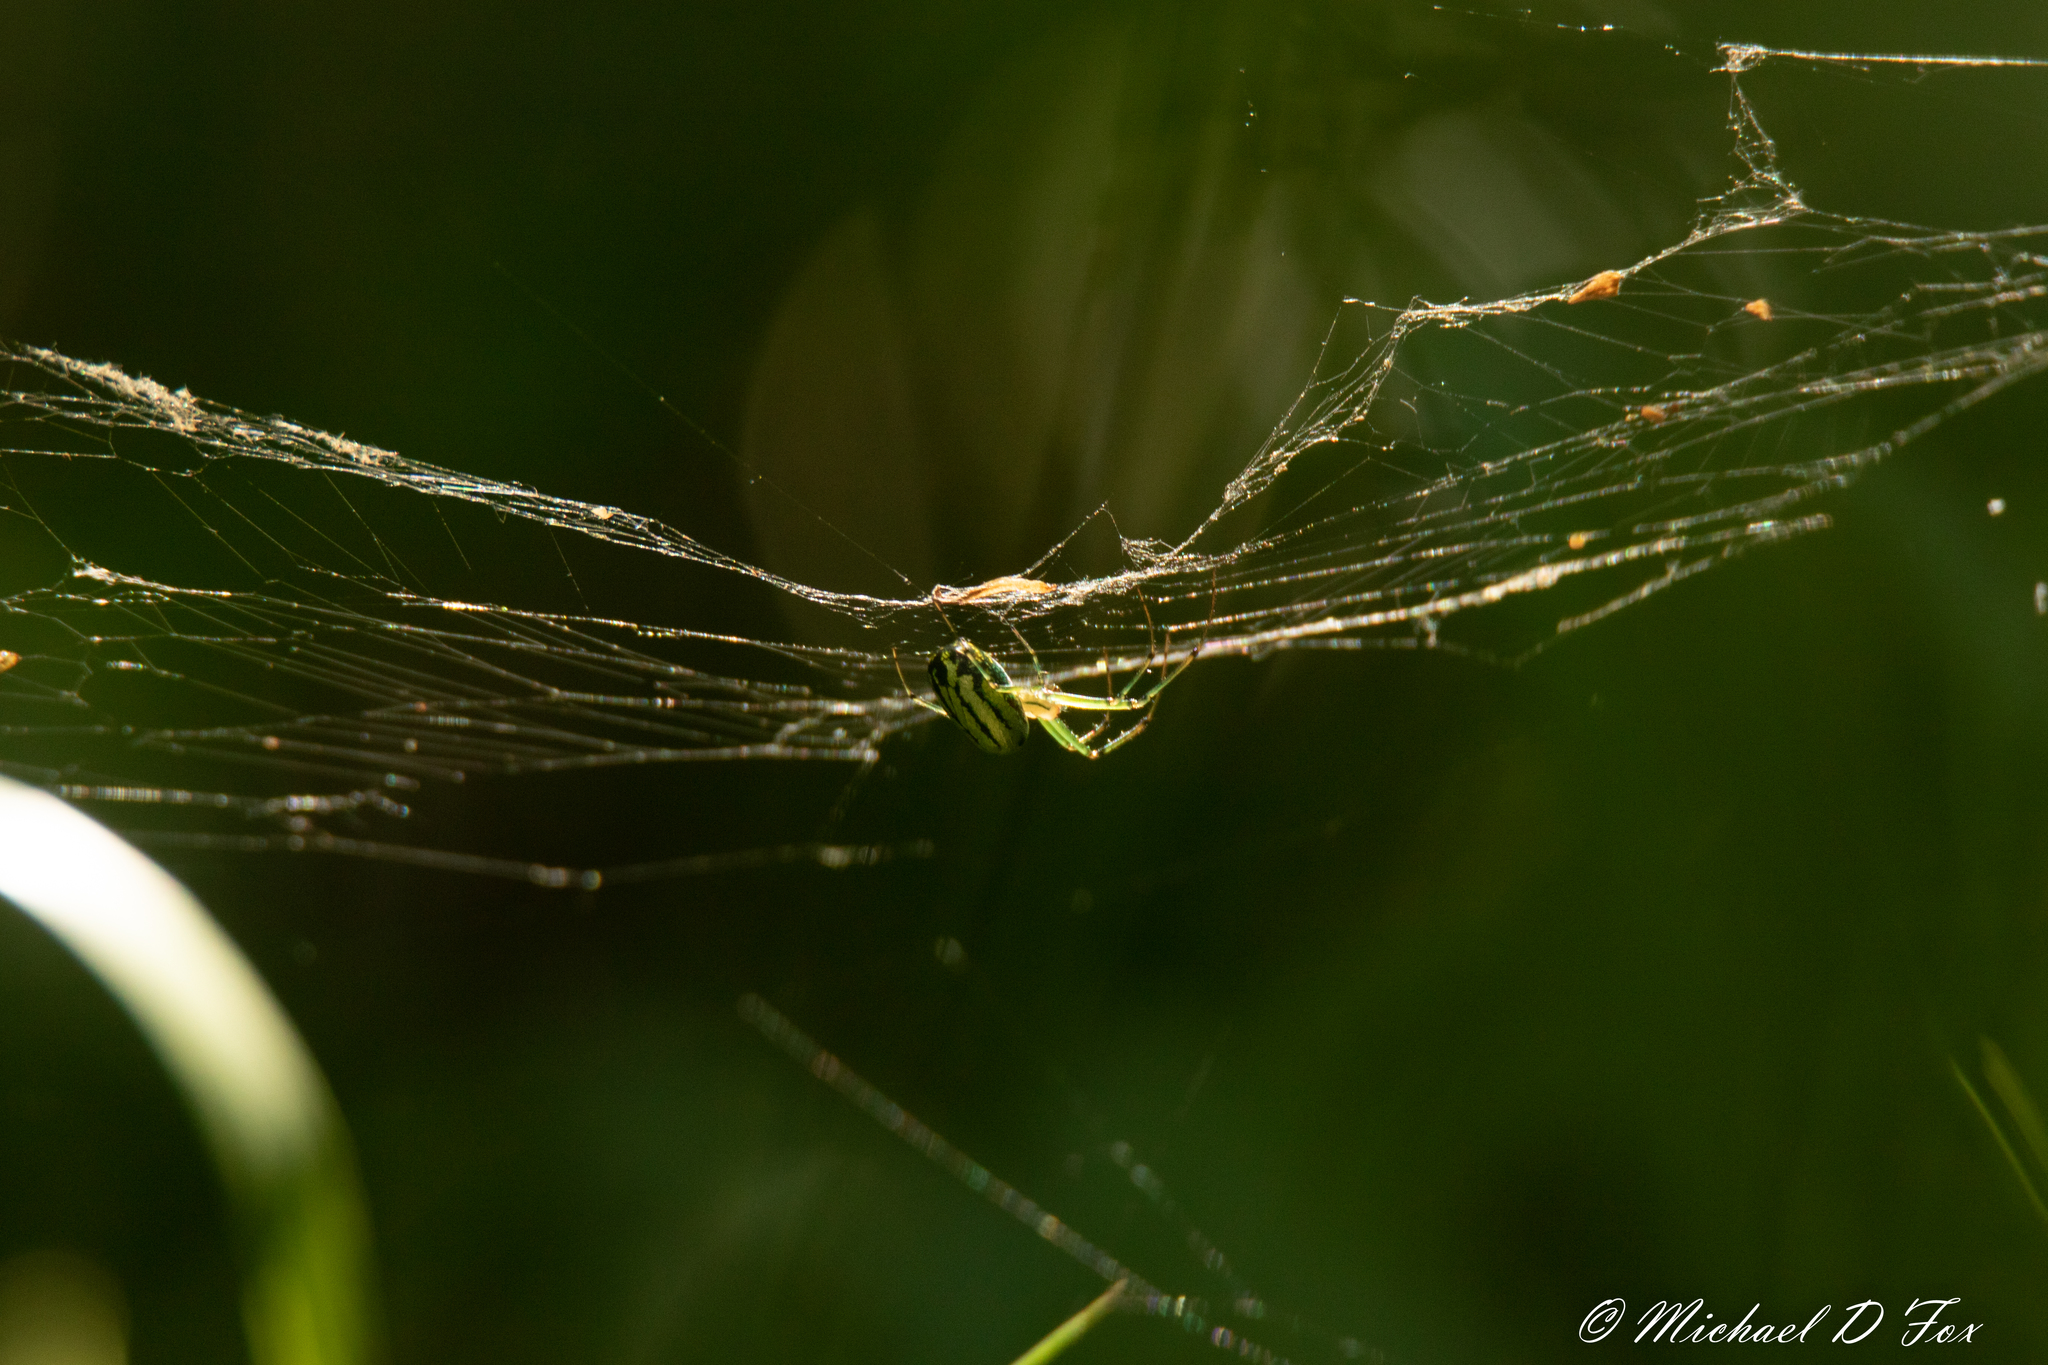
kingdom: Animalia
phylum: Arthropoda
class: Arachnida
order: Araneae
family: Tetragnathidae
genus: Leucauge
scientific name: Leucauge venusta
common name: Longjawed orb weavers
